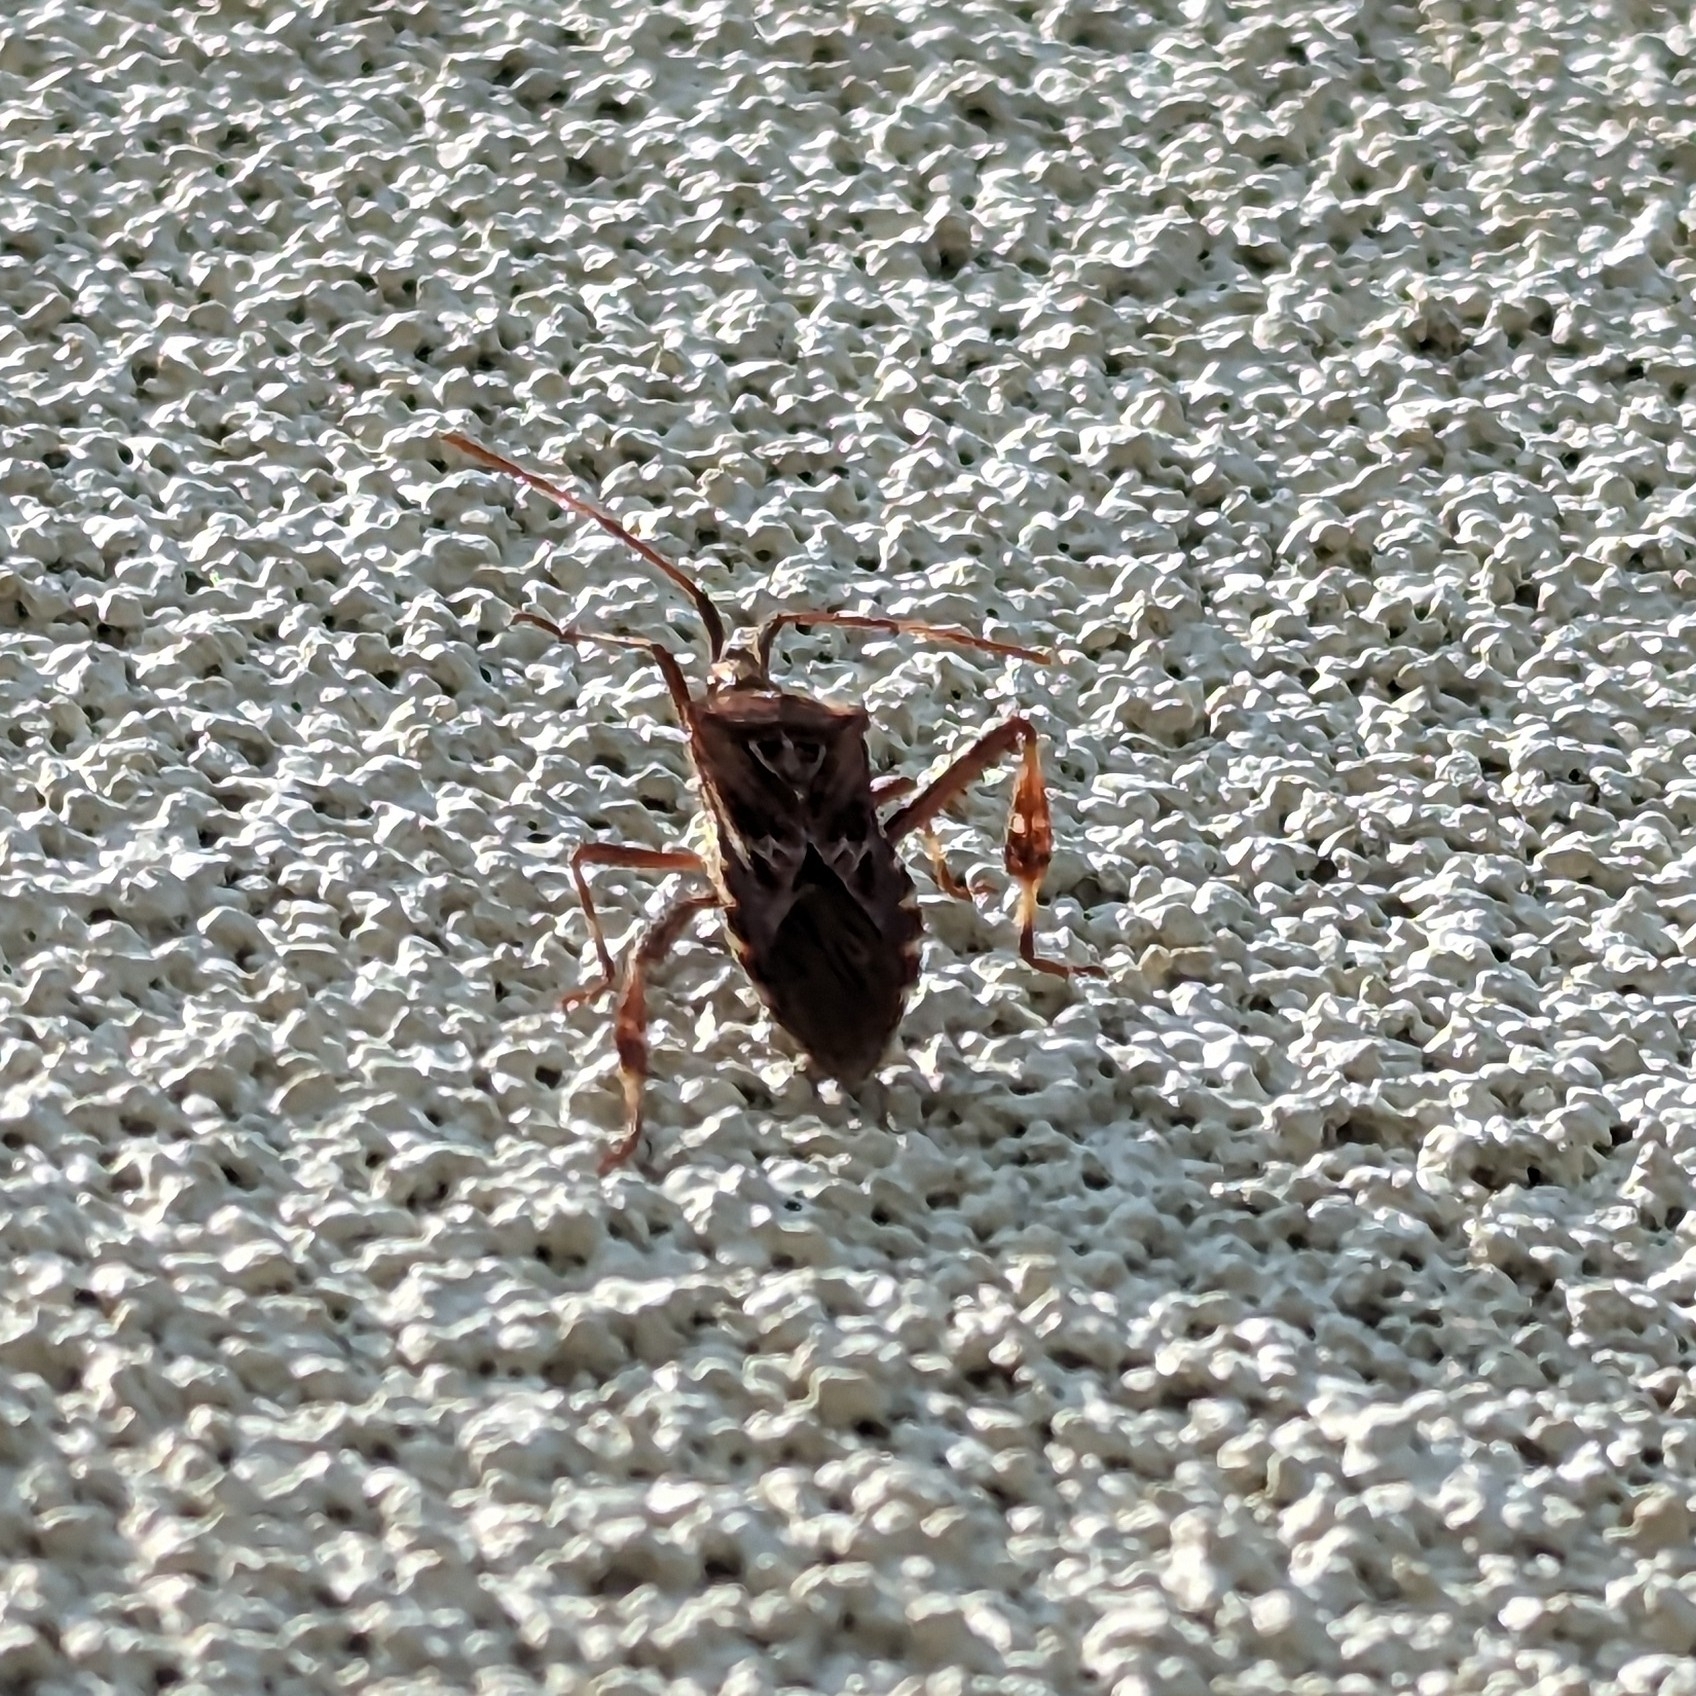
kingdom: Animalia
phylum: Arthropoda
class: Insecta
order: Hemiptera
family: Coreidae
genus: Leptoglossus
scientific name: Leptoglossus occidentalis
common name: Western conifer-seed bug
